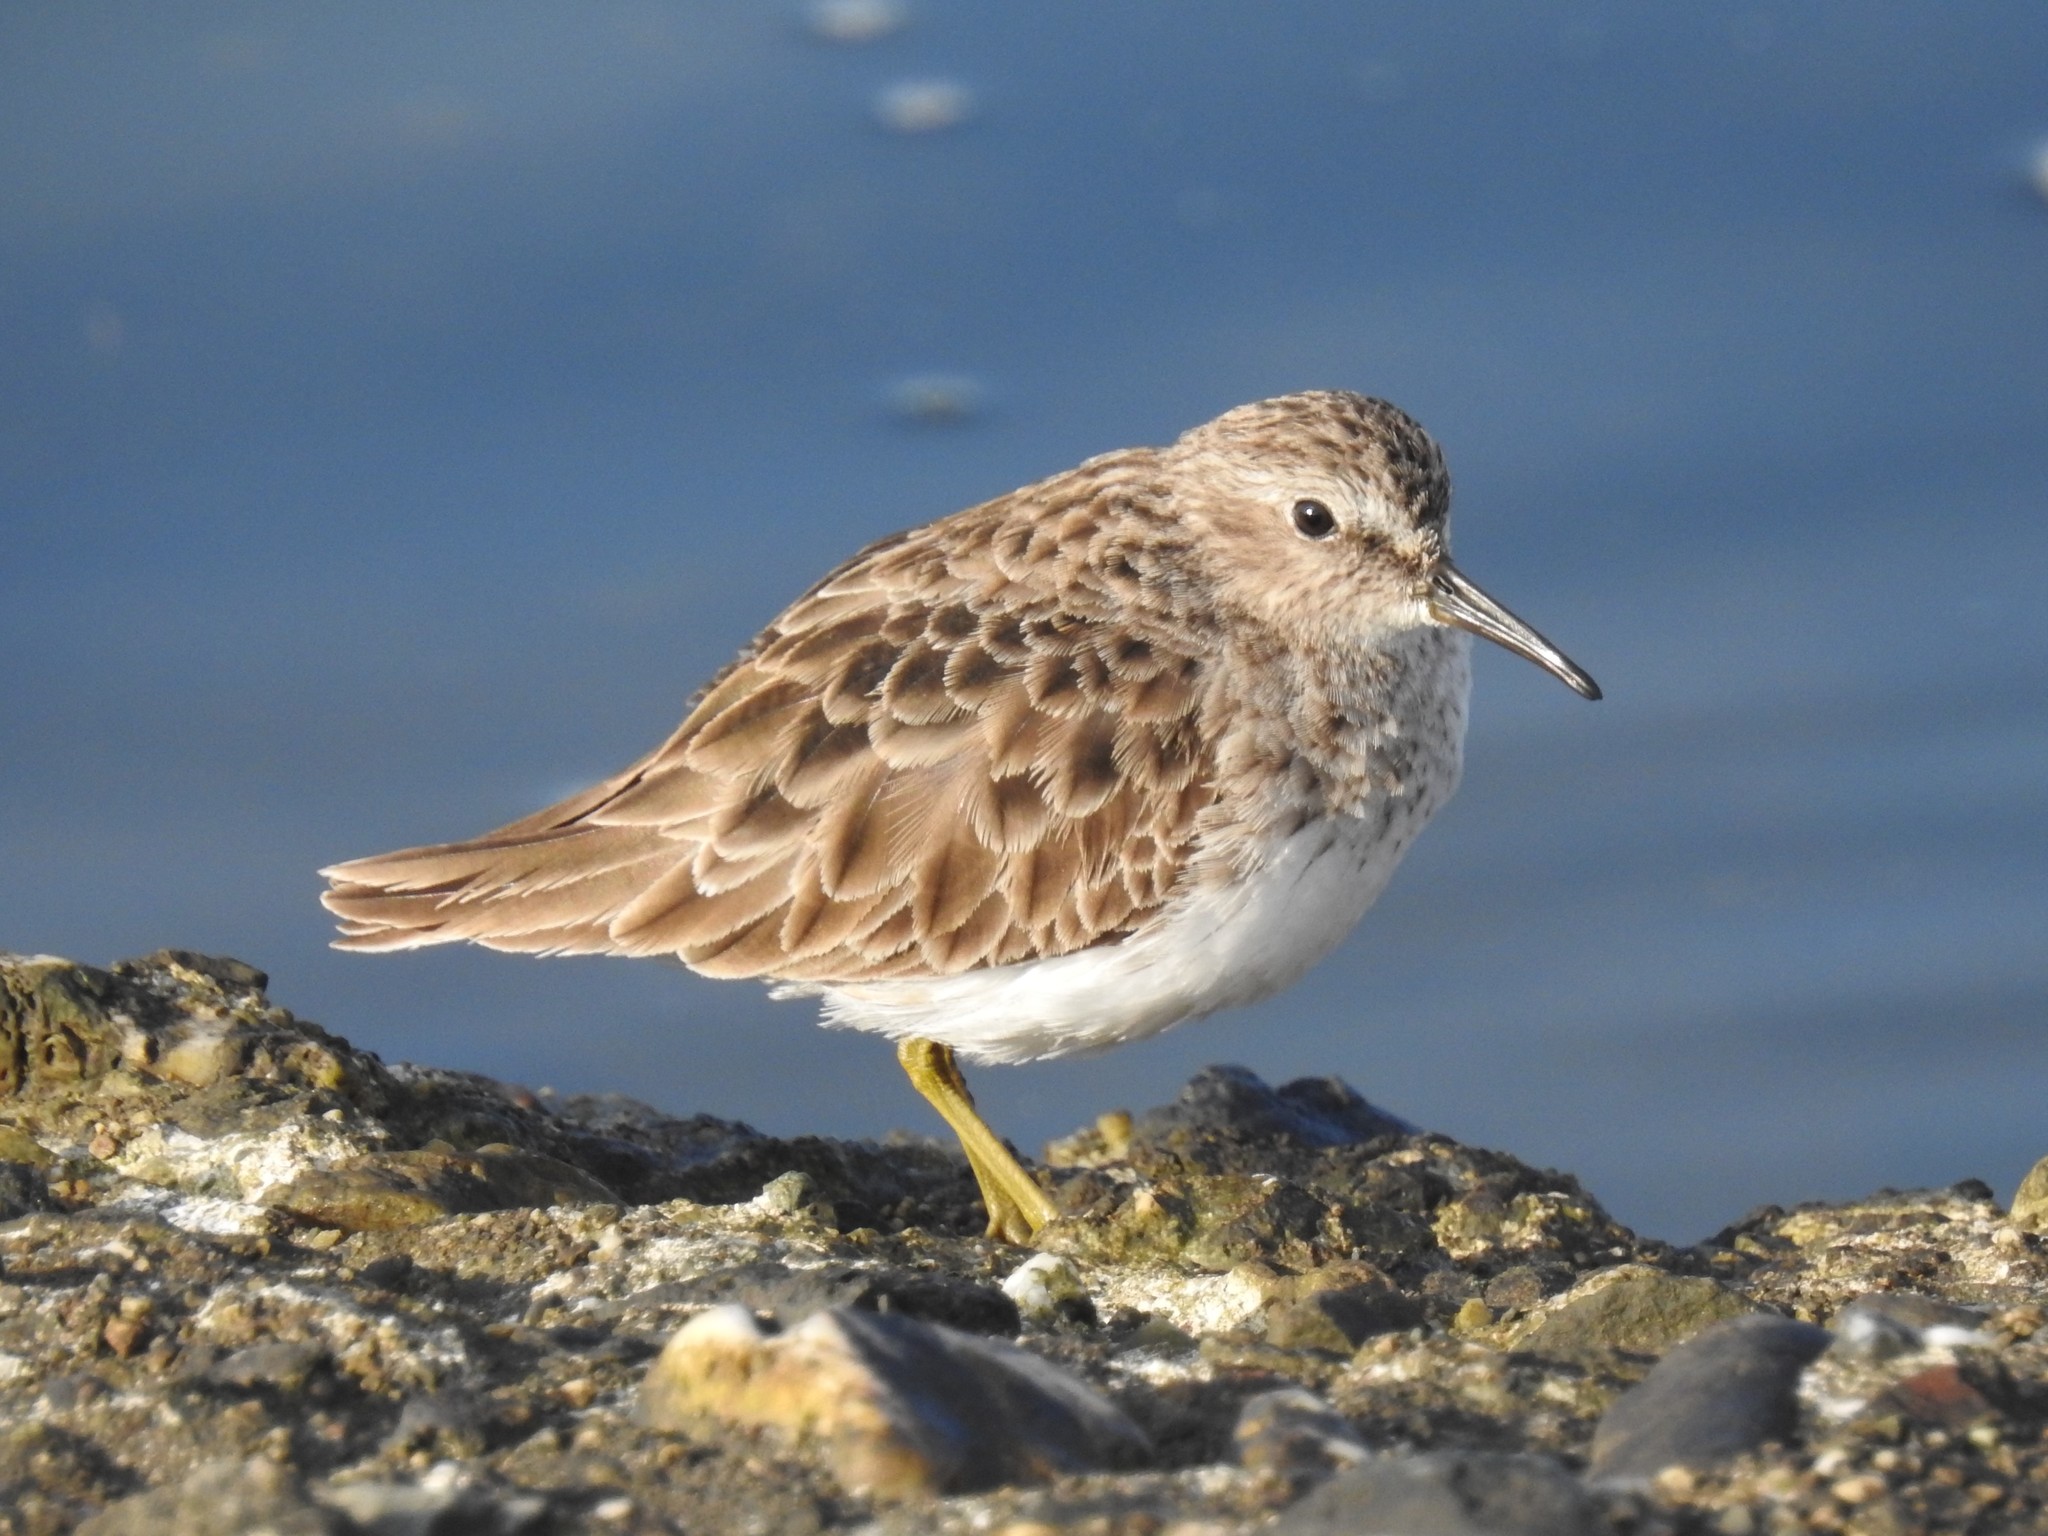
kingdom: Animalia
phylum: Chordata
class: Aves
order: Charadriiformes
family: Scolopacidae
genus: Calidris
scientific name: Calidris minutilla
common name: Least sandpiper
